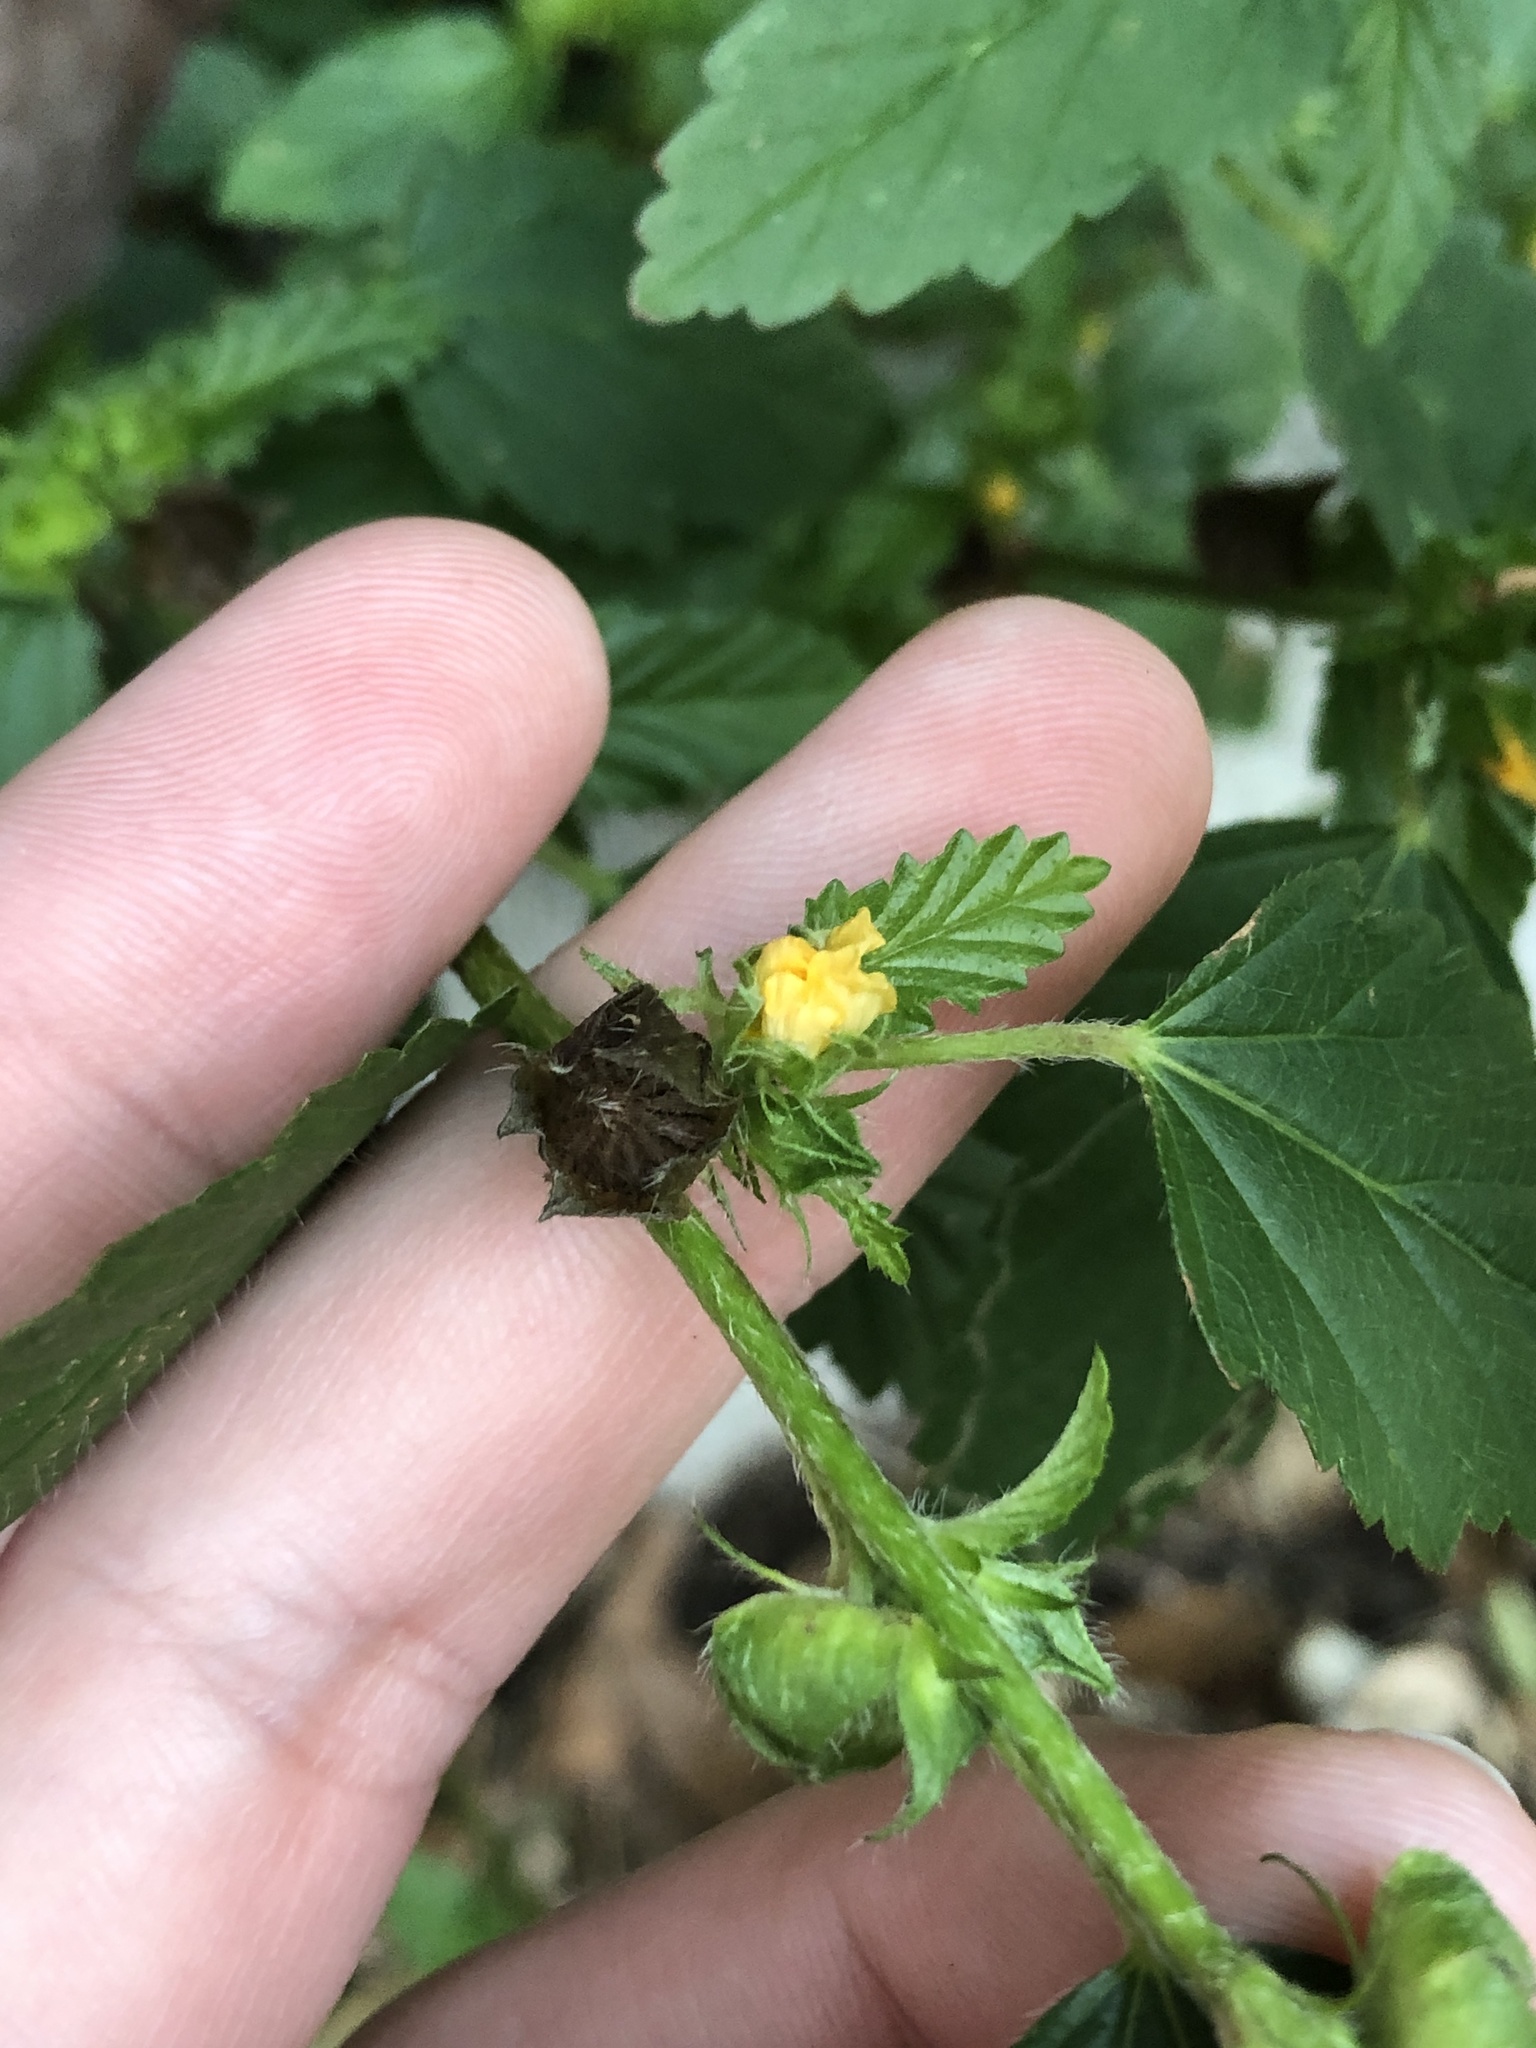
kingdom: Plantae
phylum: Tracheophyta
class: Magnoliopsida
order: Malvales
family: Malvaceae
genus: Malvastrum
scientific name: Malvastrum coromandelianum
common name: Threelobe false mallow
